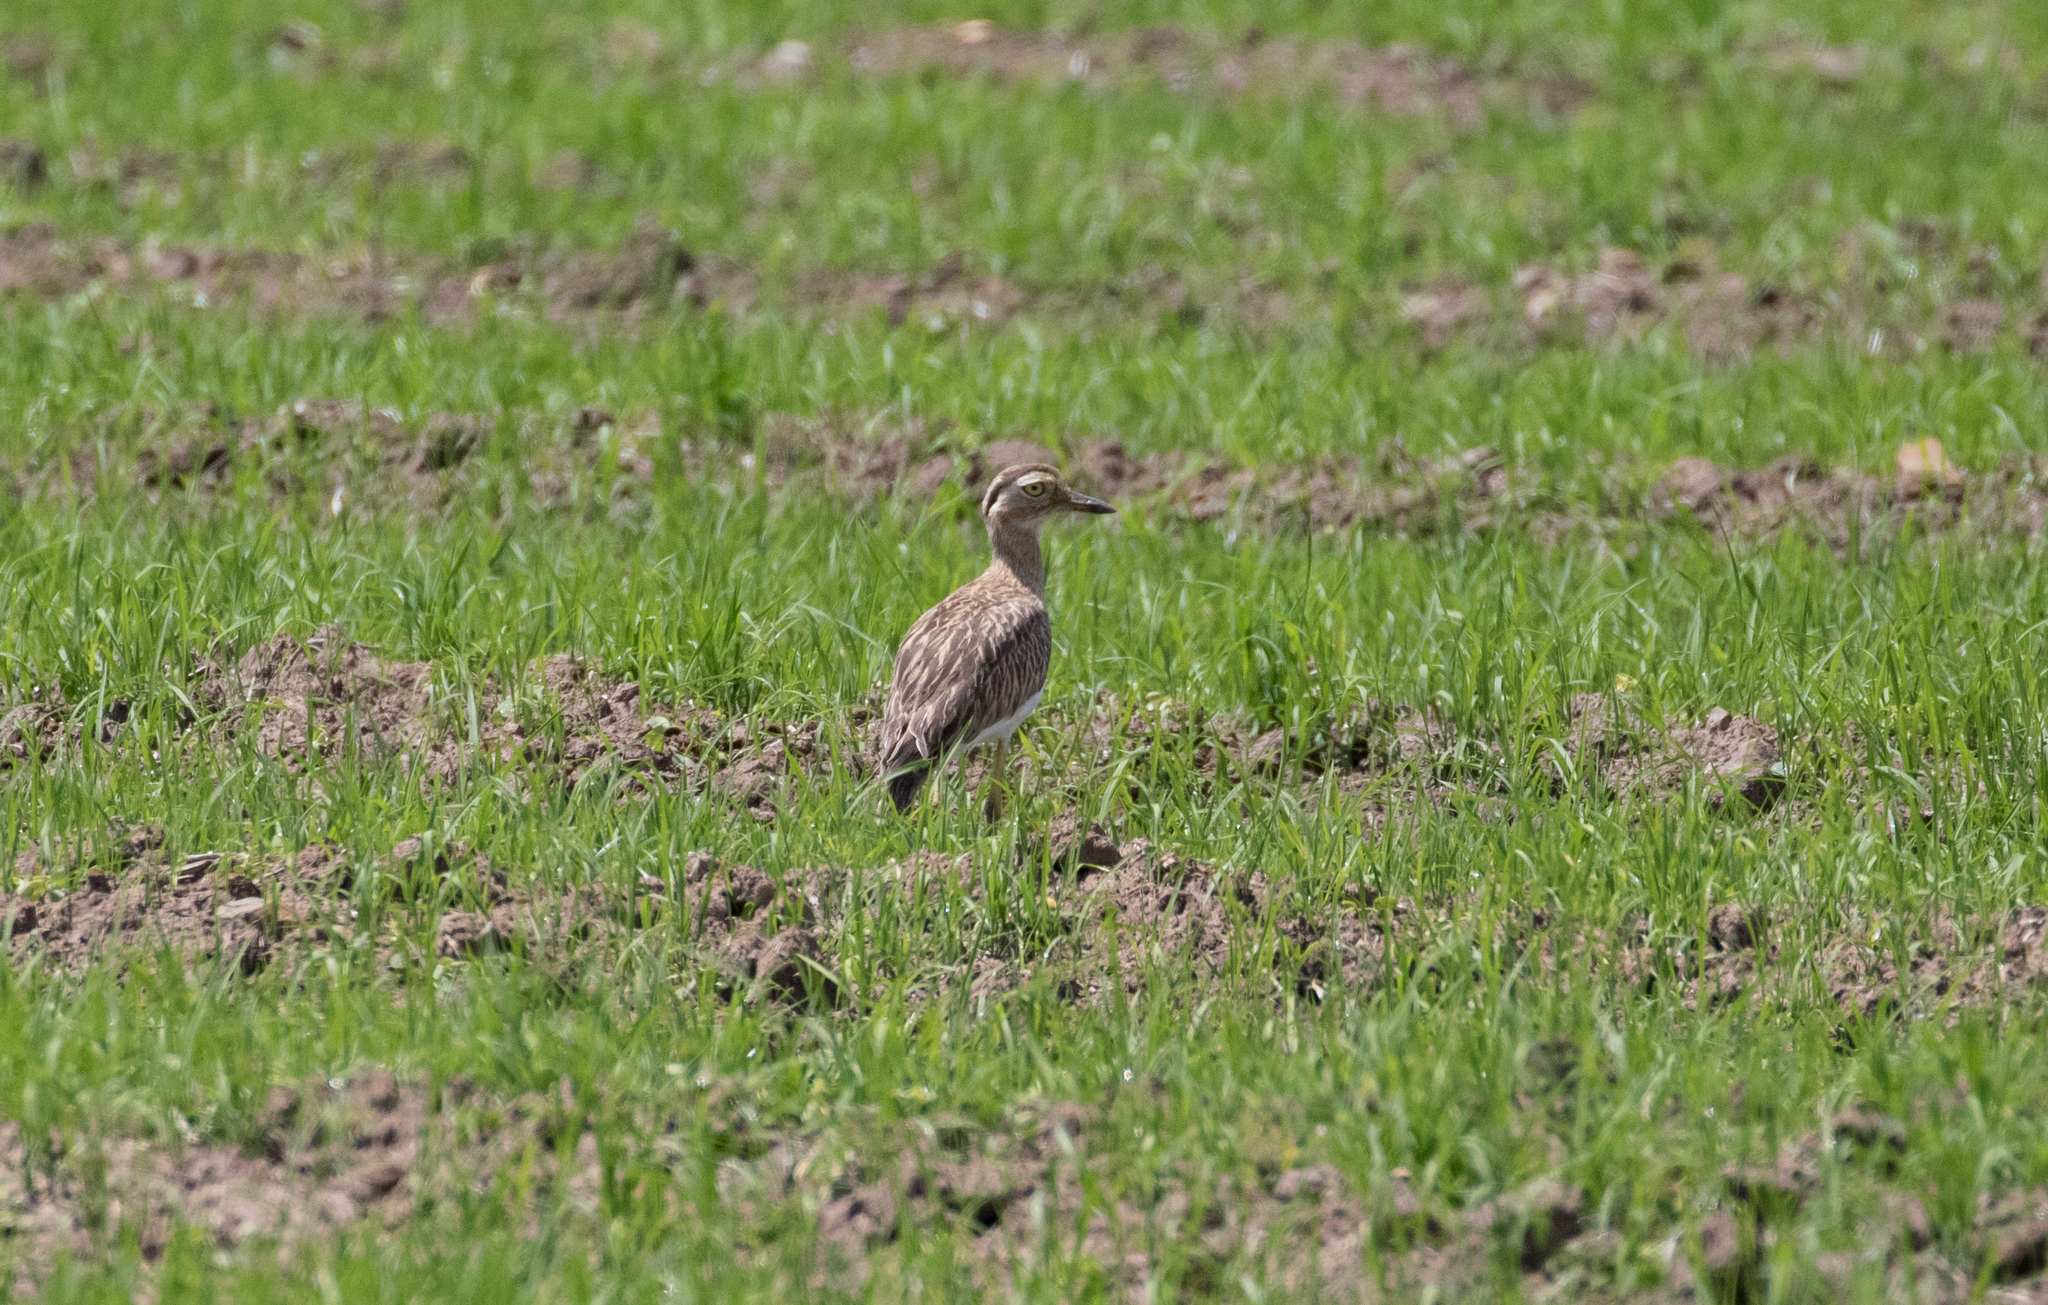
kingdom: Animalia
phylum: Chordata
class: Aves
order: Charadriiformes
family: Burhinidae
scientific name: Burhinidae
